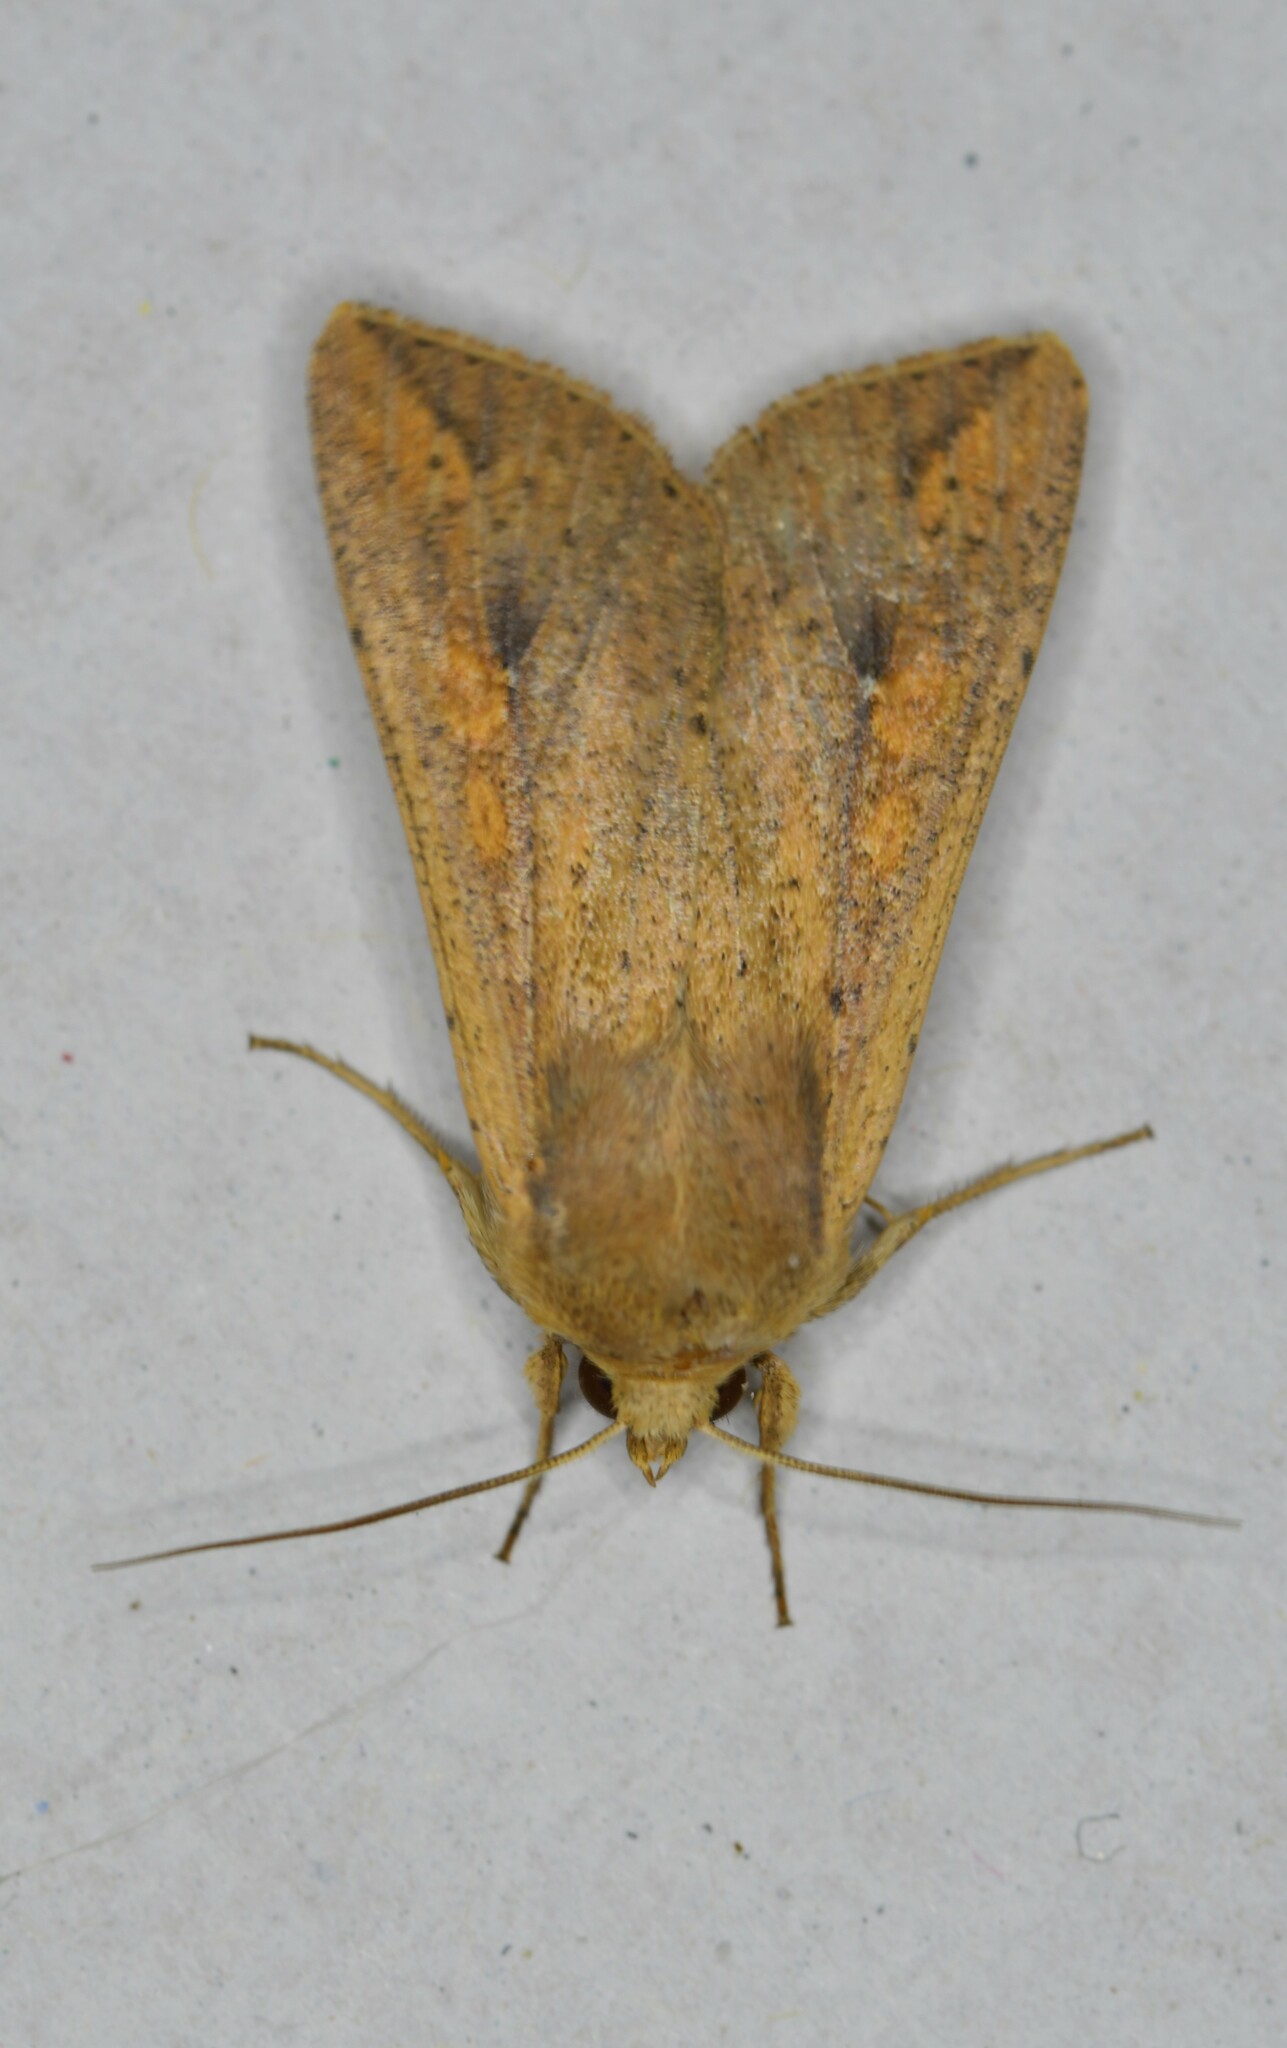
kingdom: Animalia
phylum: Arthropoda
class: Insecta
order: Lepidoptera
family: Noctuidae
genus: Mythimna
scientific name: Mythimna unipuncta
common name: White-speck
